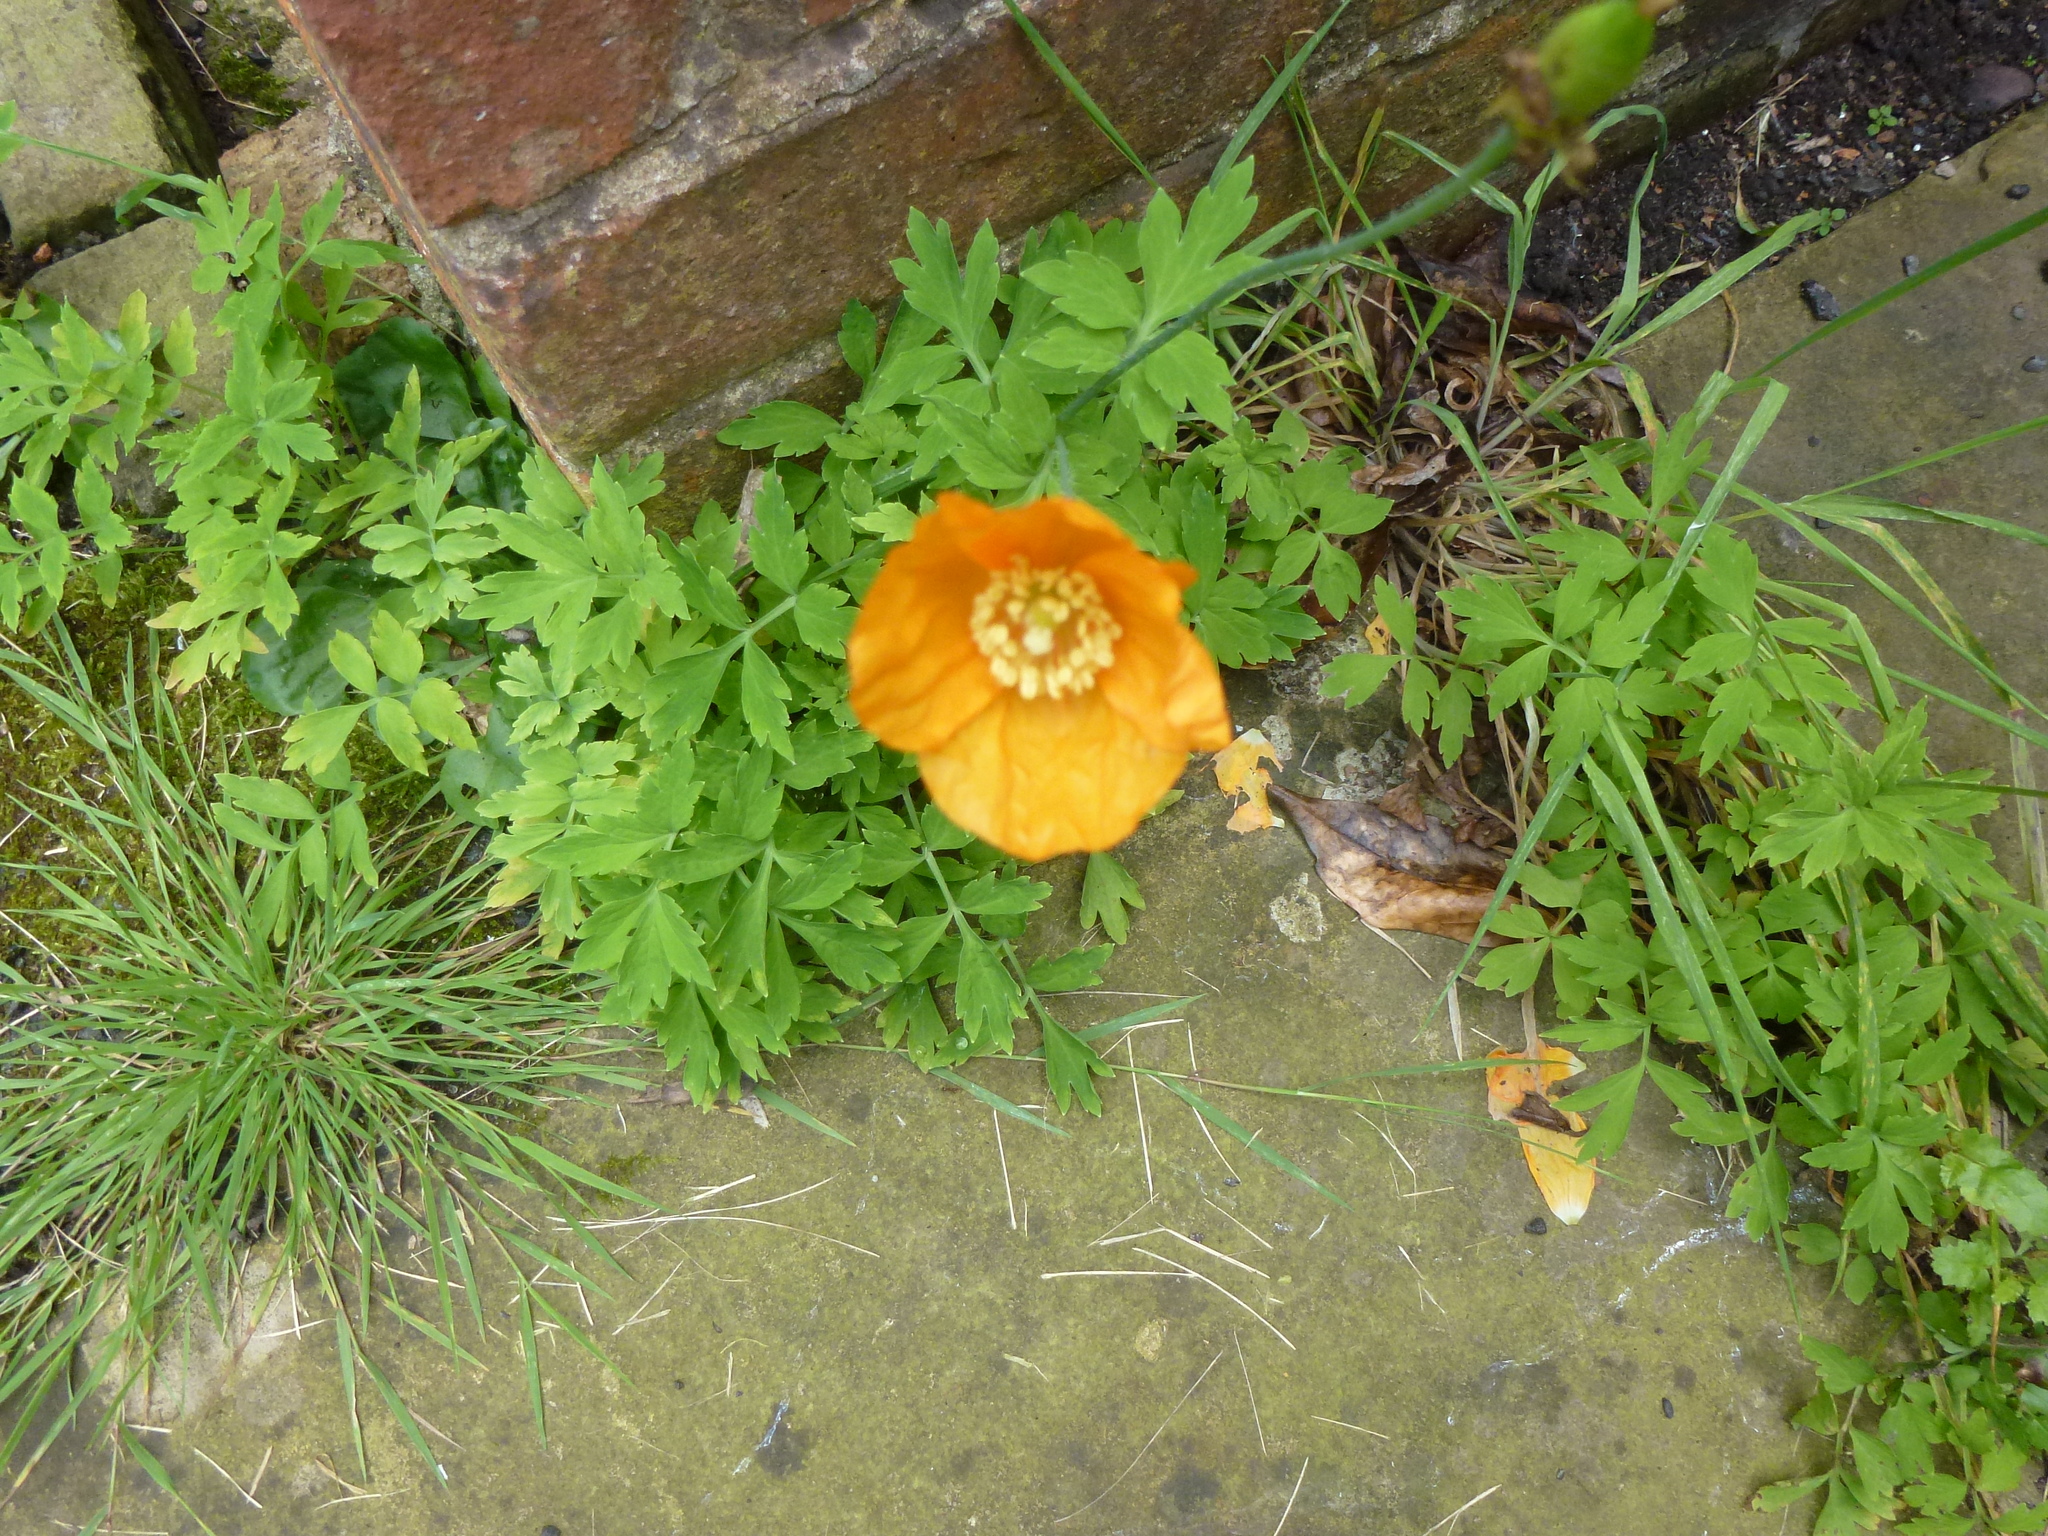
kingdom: Plantae
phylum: Tracheophyta
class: Magnoliopsida
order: Ranunculales
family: Papaveraceae
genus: Papaver
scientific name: Papaver cambricum
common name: Poppy
